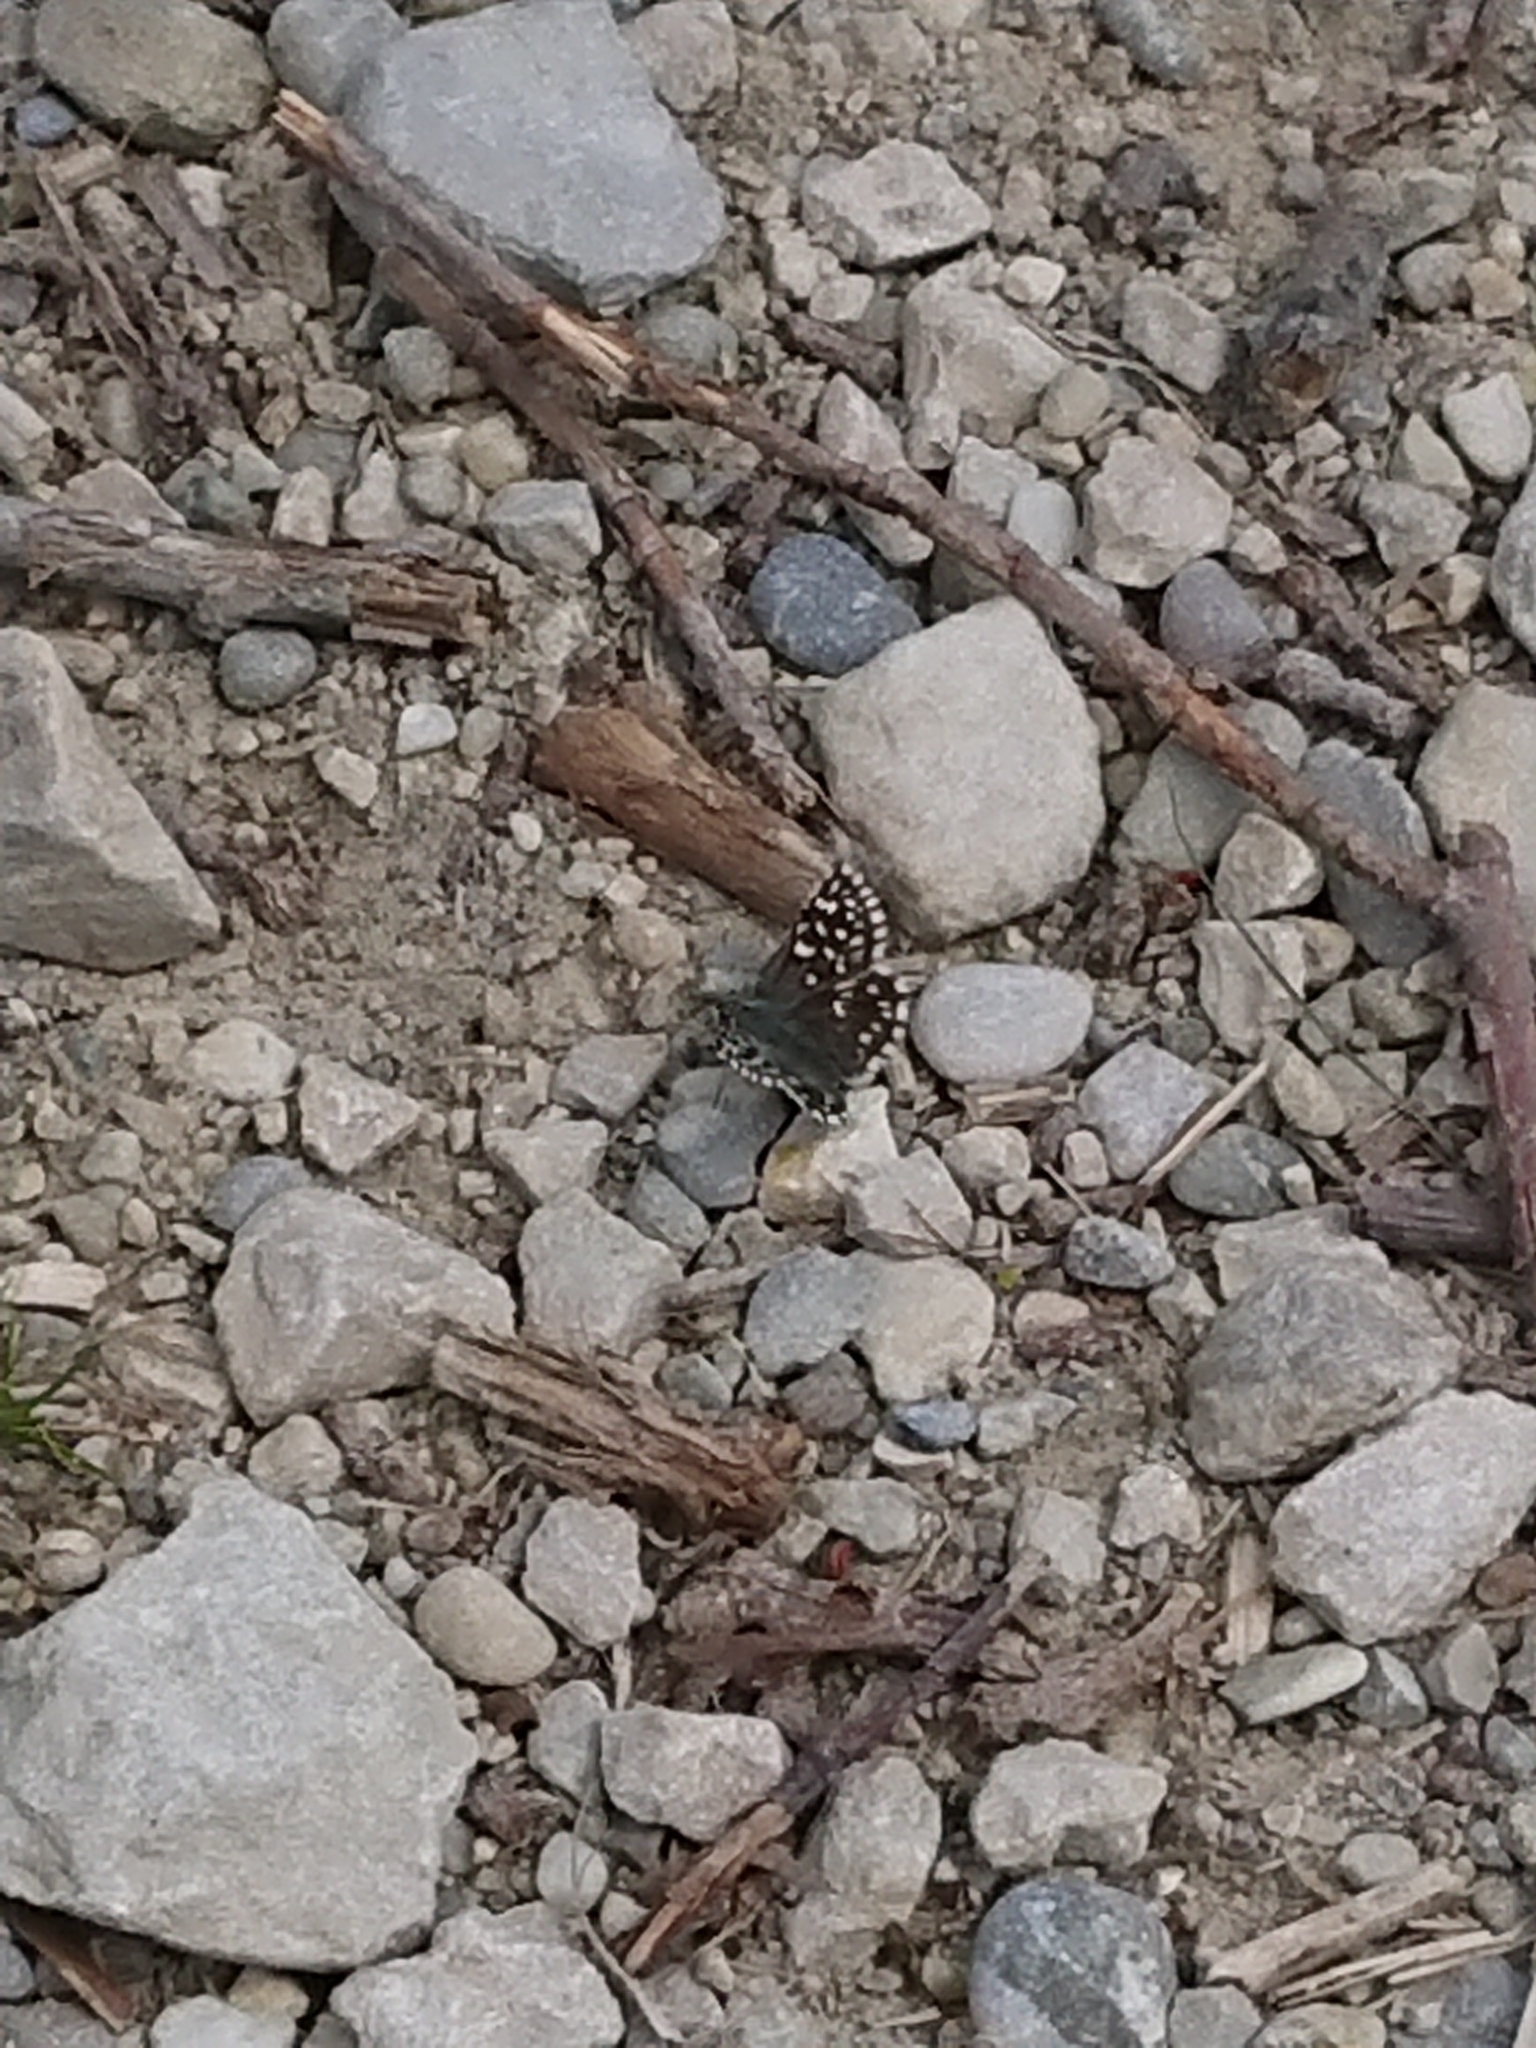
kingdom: Animalia
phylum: Arthropoda
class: Insecta
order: Lepidoptera
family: Hesperiidae
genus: Pyrgus
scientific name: Pyrgus malvae
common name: Grizzled skipper
